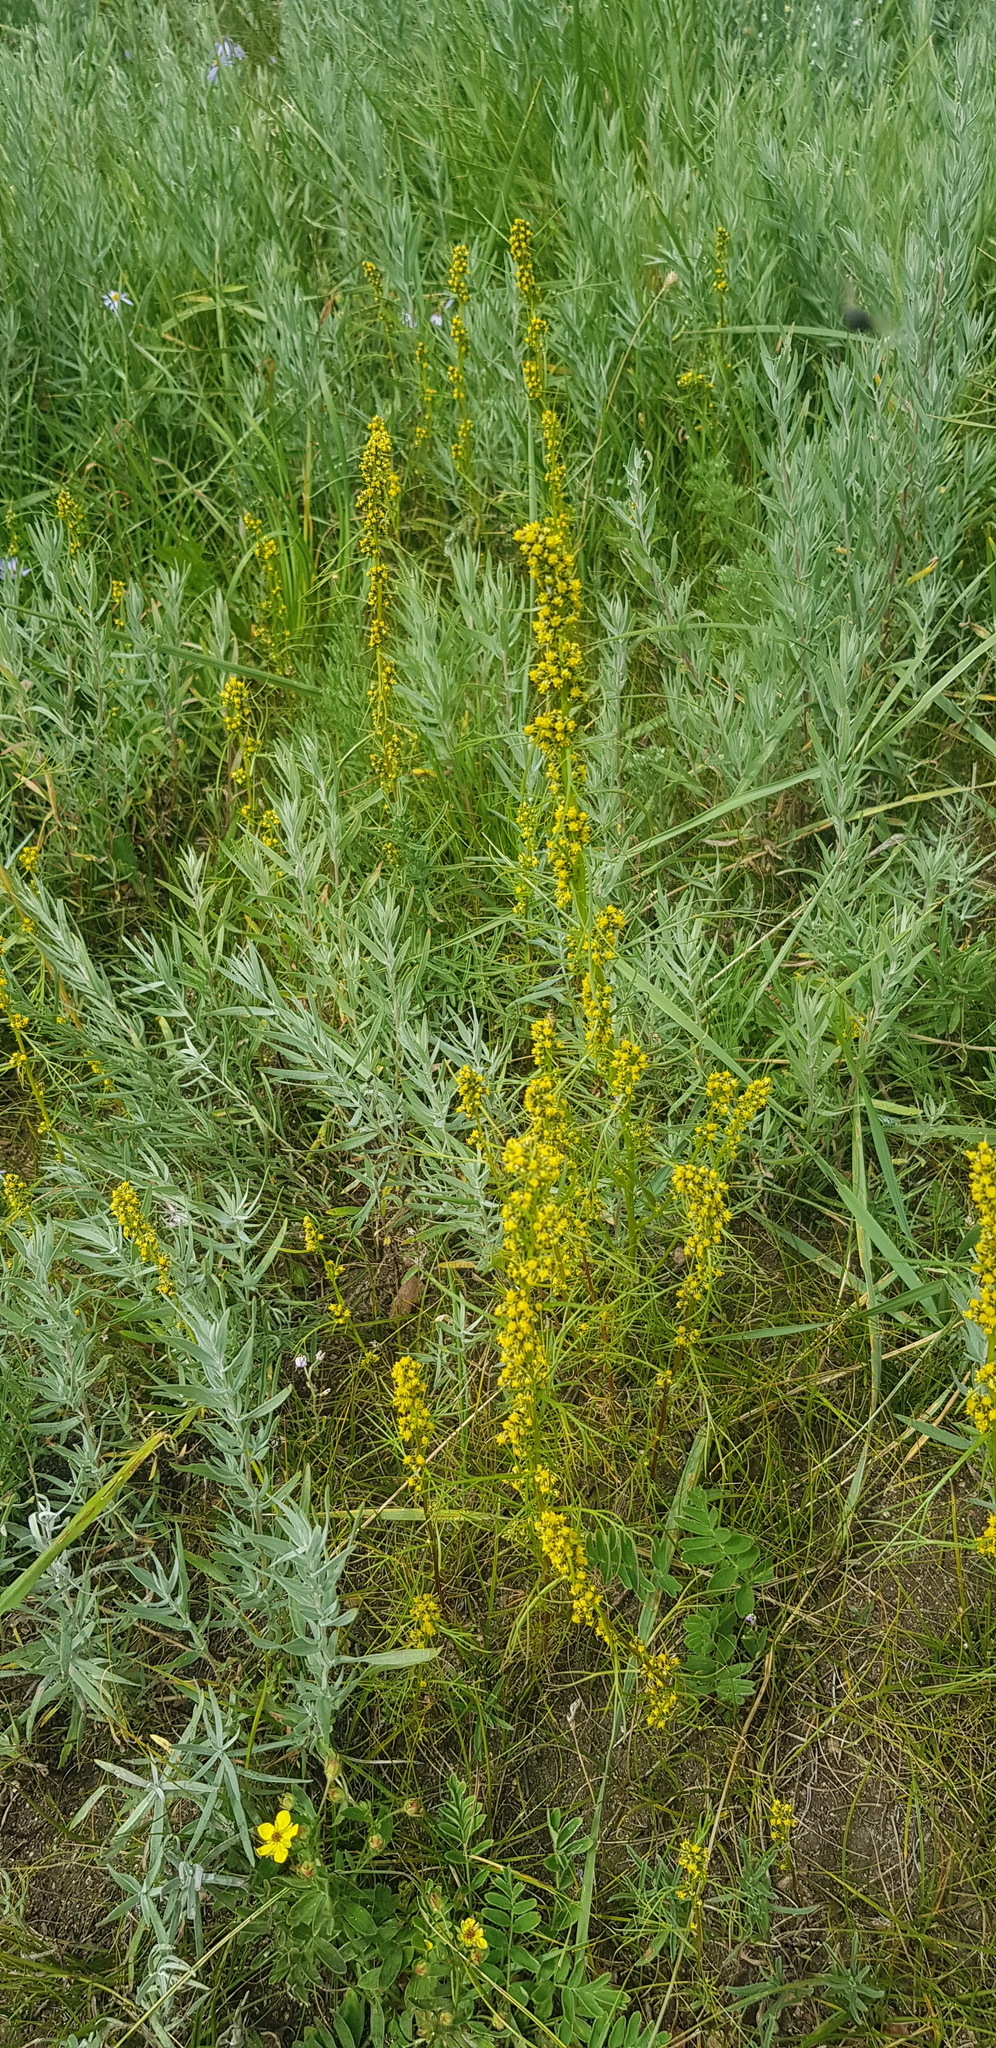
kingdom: Plantae
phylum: Tracheophyta
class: Magnoliopsida
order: Asterales
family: Asteraceae
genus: Artemisia
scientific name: Artemisia palustris
